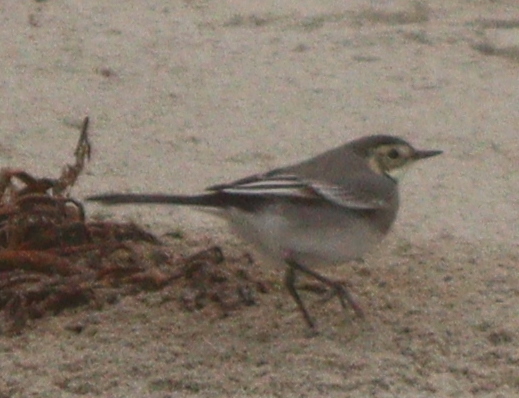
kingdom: Animalia
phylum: Chordata
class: Aves
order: Passeriformes
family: Motacillidae
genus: Motacilla
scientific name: Motacilla alba
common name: White wagtail
